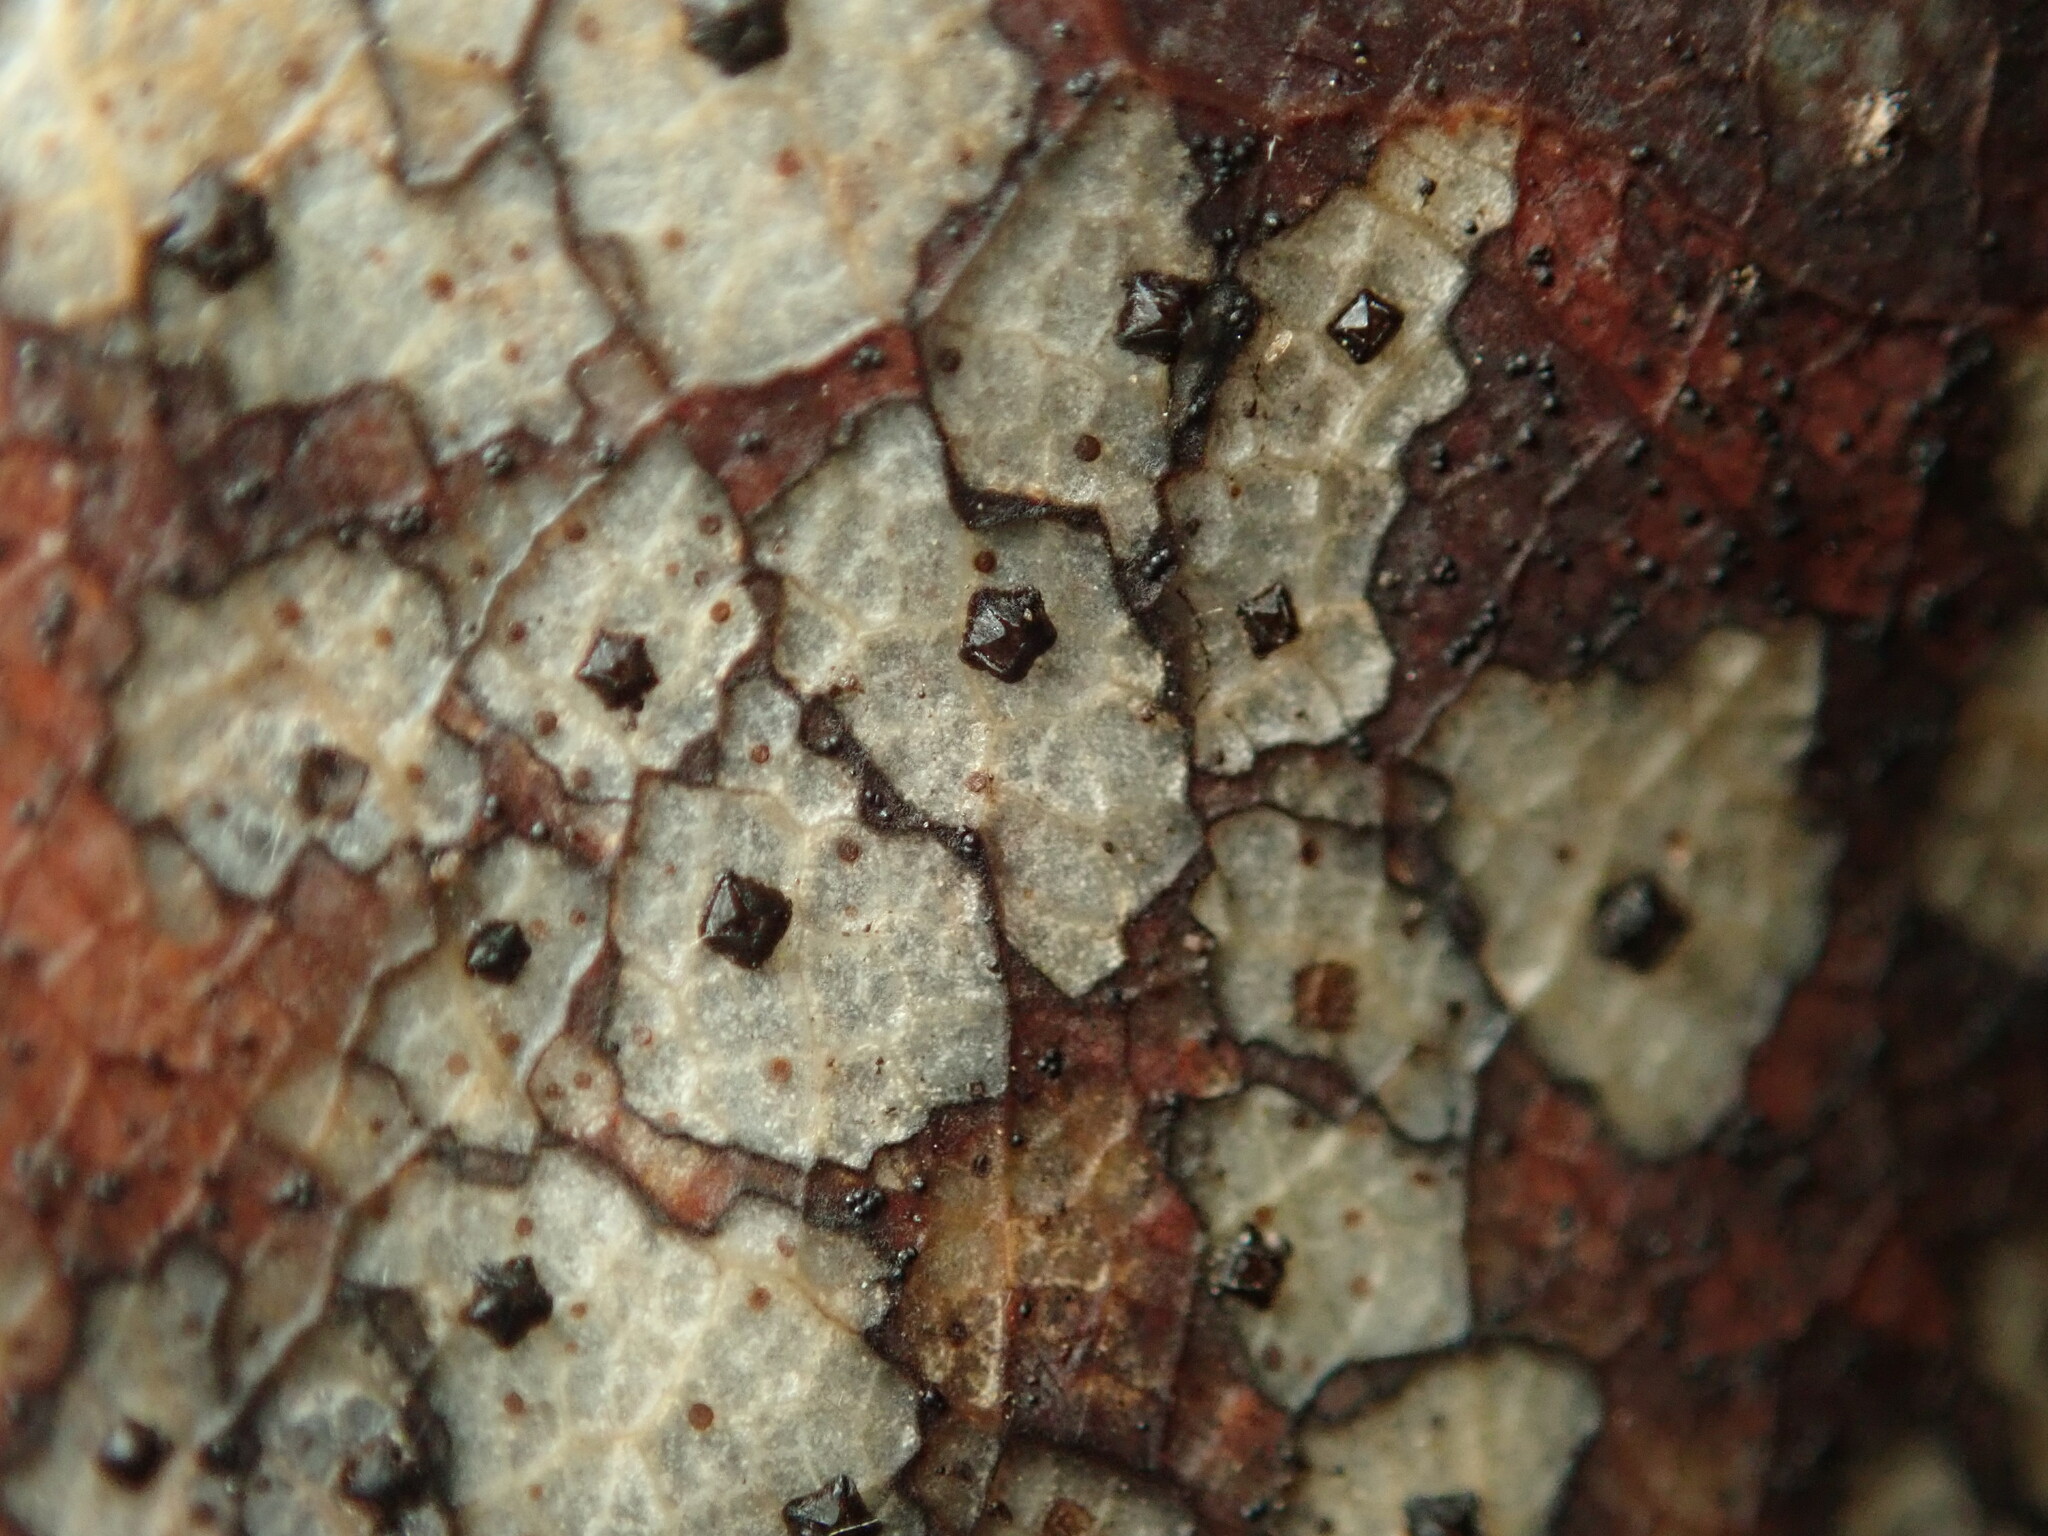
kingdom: Fungi
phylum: Ascomycota
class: Leotiomycetes
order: Rhytismatales
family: Rhytismataceae
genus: Coccomyces
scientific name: Coccomyces dentatus
